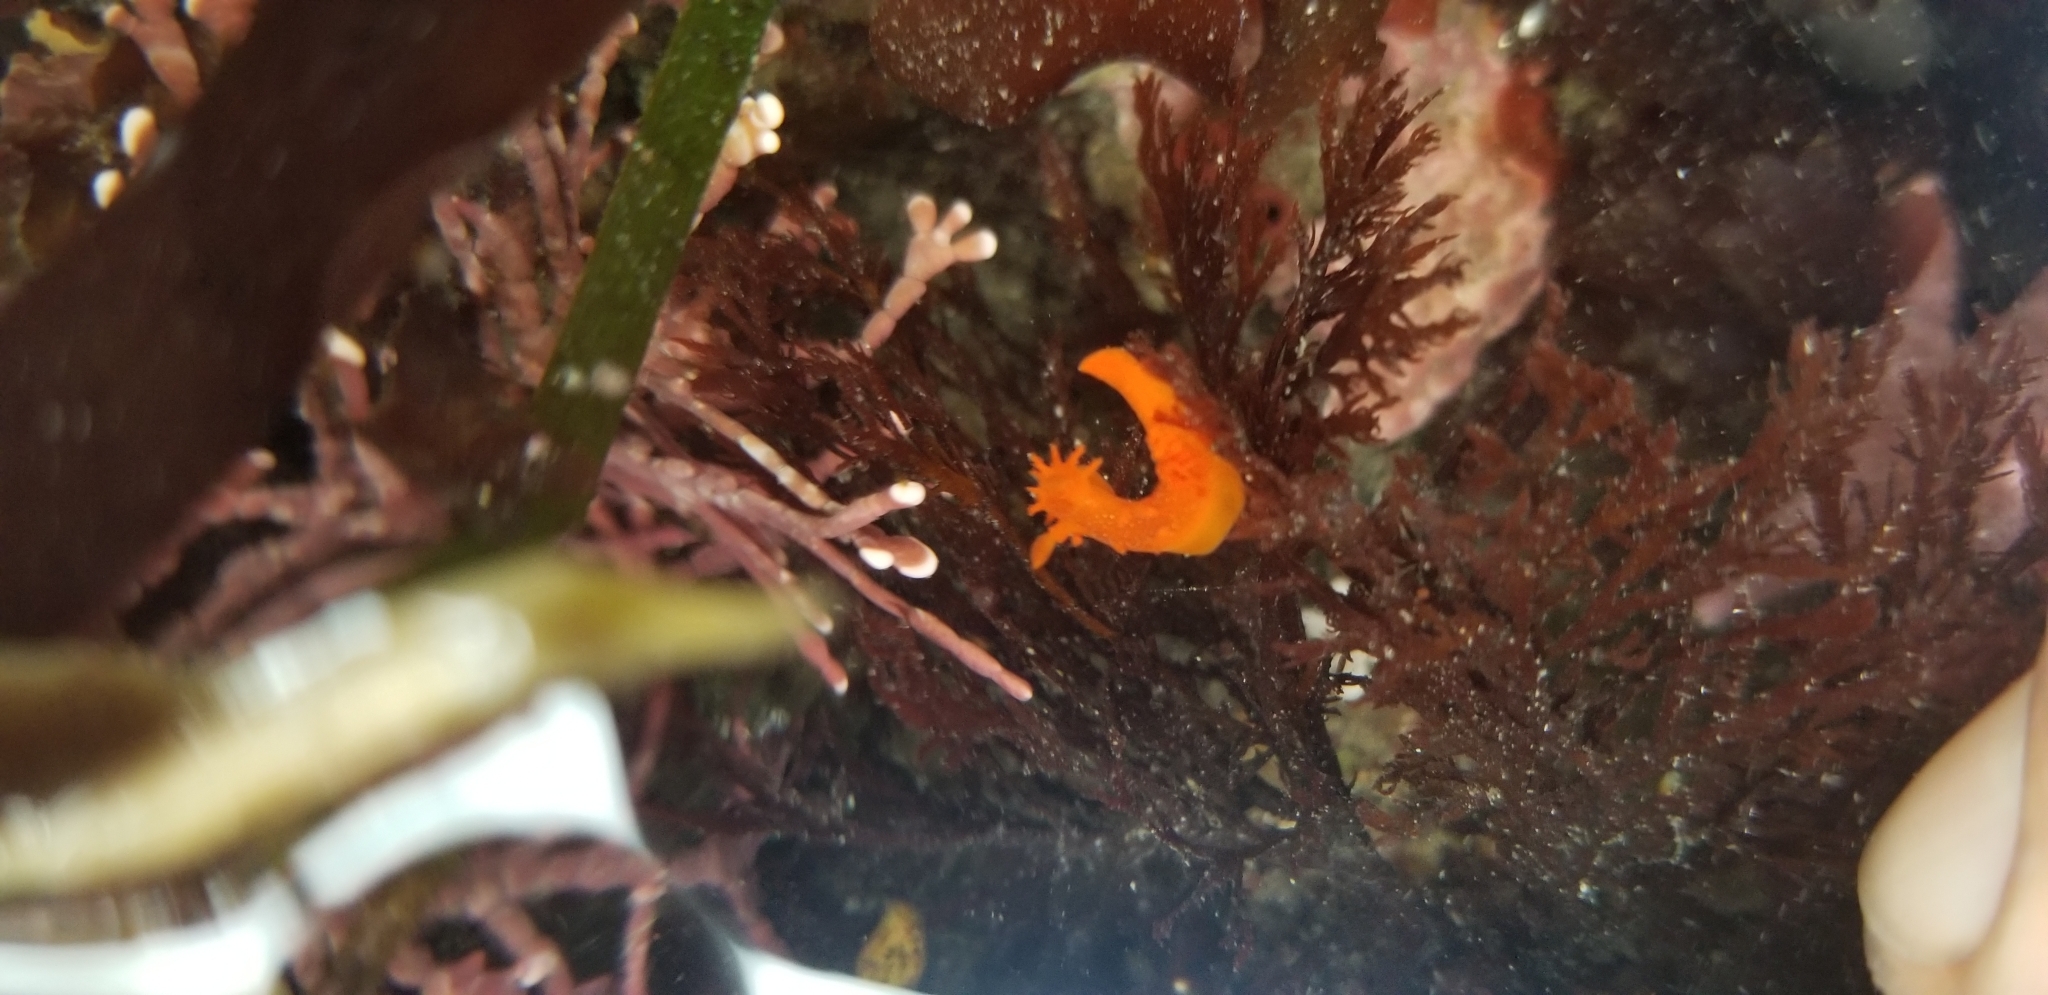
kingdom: Animalia
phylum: Mollusca
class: Gastropoda
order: Nudibranchia
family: Polyceridae
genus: Triopha
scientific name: Triopha maculata
